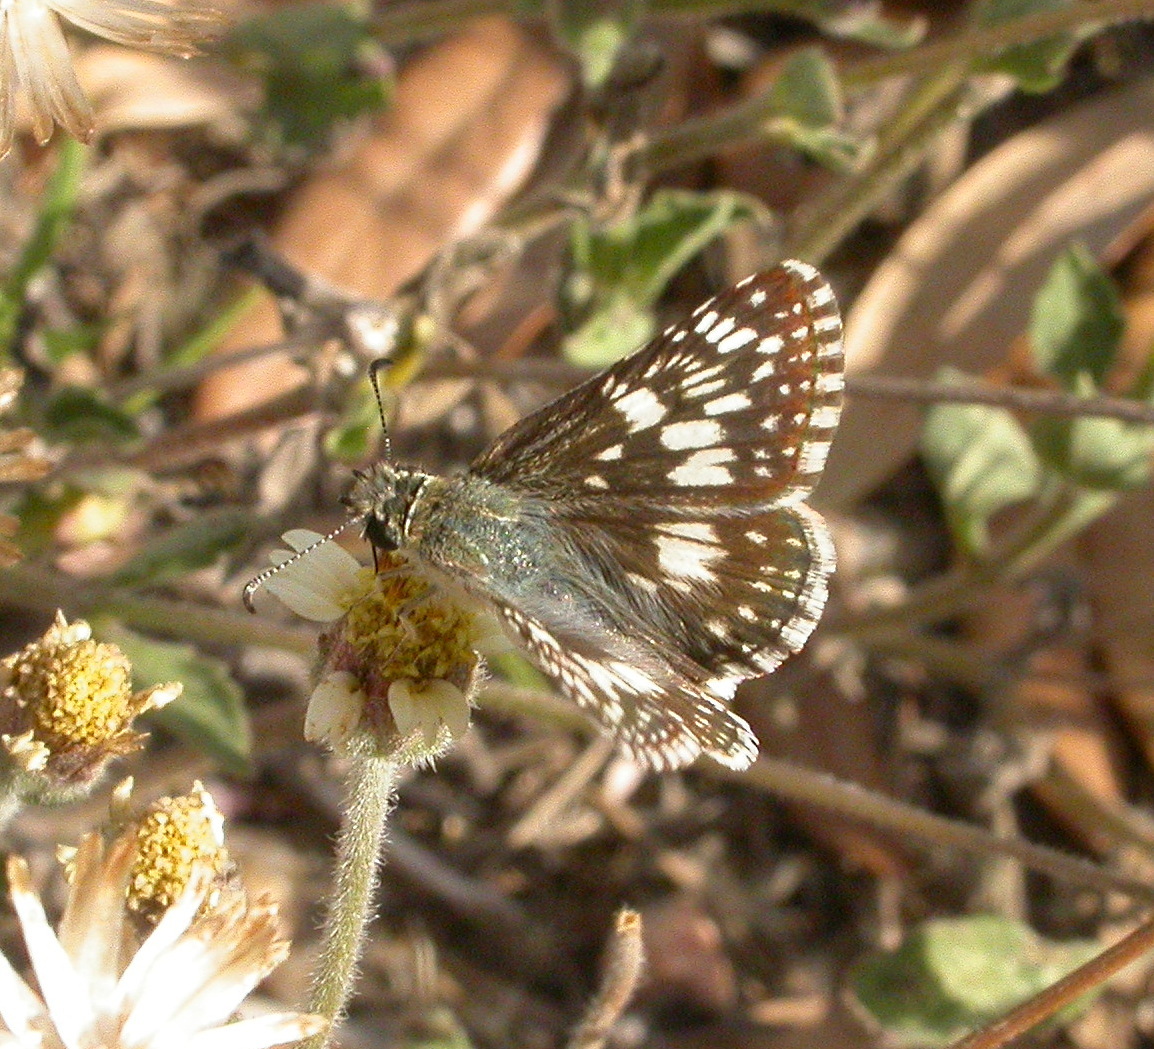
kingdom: Animalia
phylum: Arthropoda
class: Insecta
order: Lepidoptera
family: Hesperiidae
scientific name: Hesperiidae
